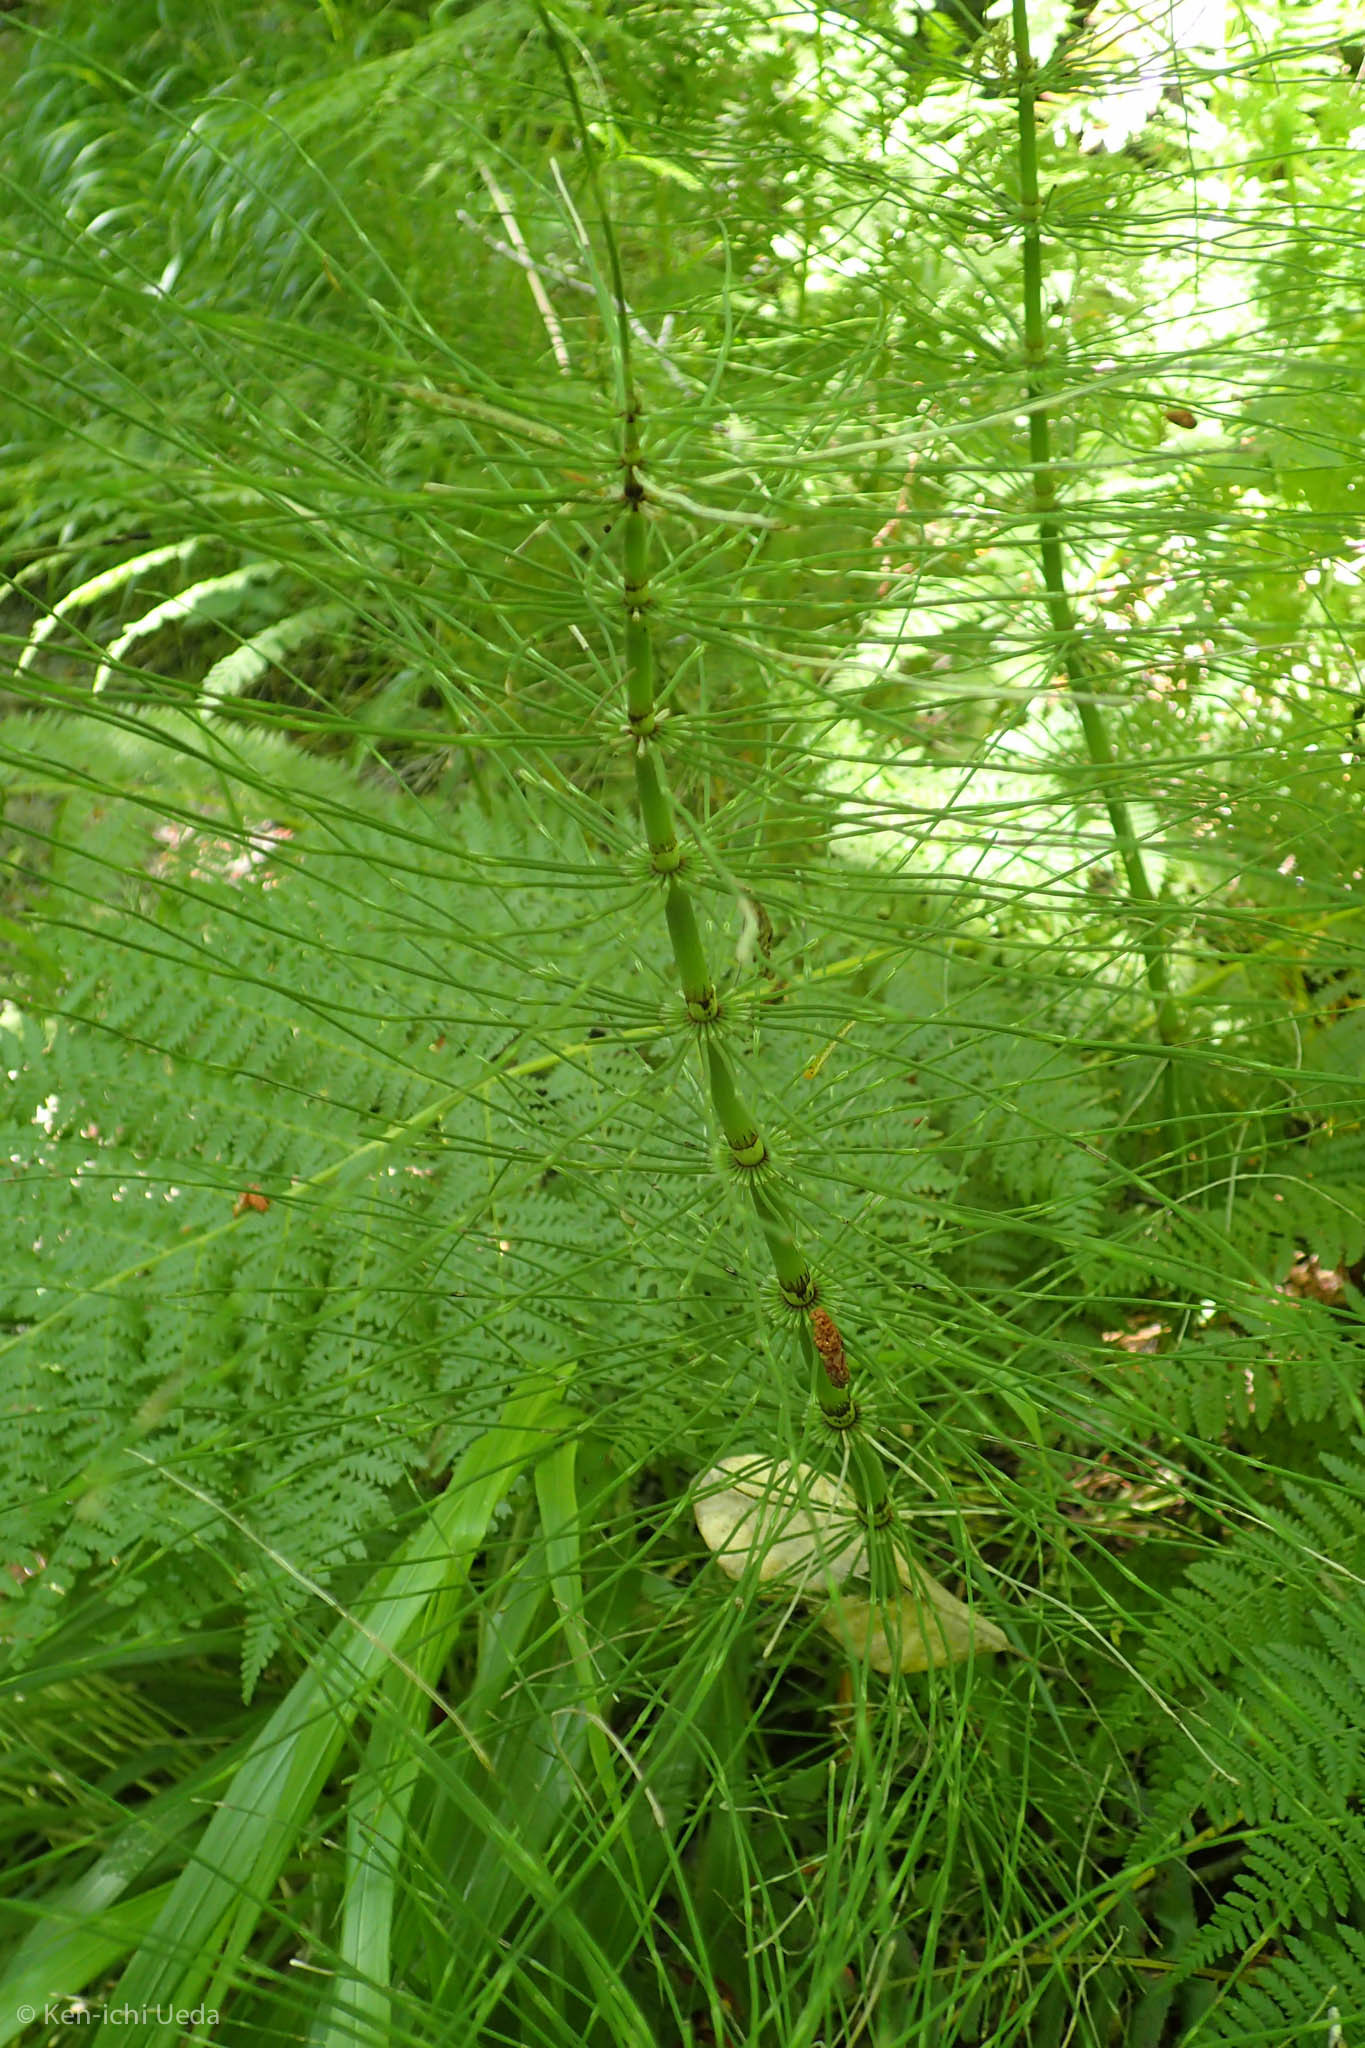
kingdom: Plantae
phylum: Tracheophyta
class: Polypodiopsida
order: Equisetales
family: Equisetaceae
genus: Equisetum
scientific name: Equisetum braunii
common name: Braun's horsetail
